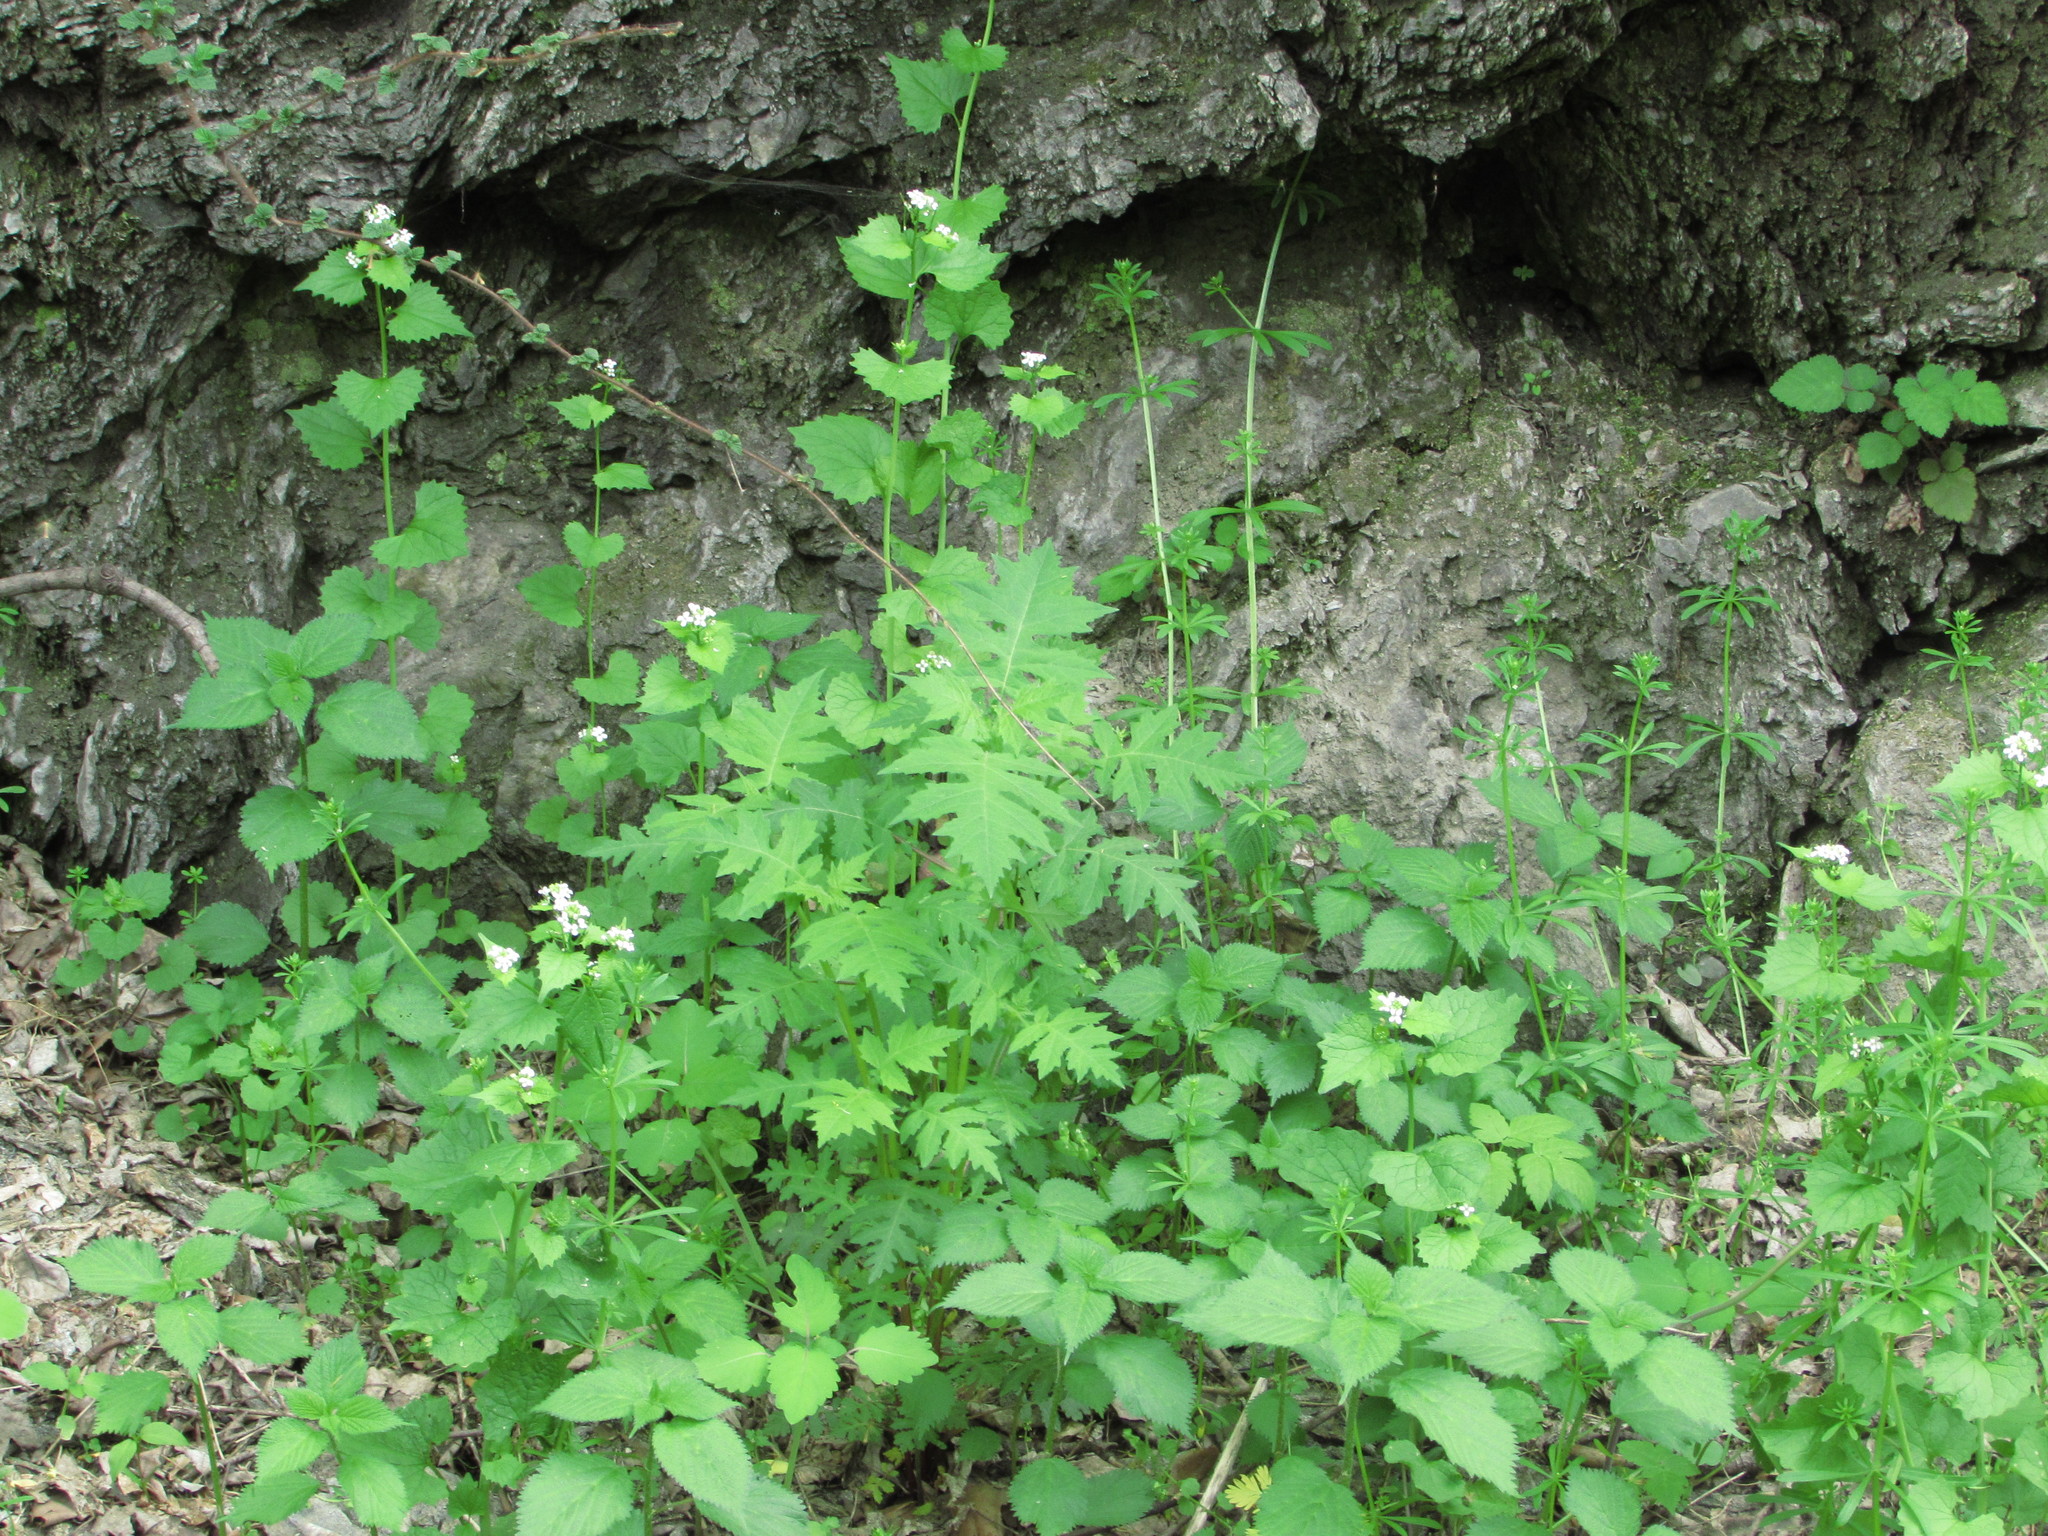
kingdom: Plantae
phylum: Tracheophyta
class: Magnoliopsida
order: Asterales
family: Asteraceae
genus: Polymnia
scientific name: Polymnia canadensis
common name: Pale-flowered leafcup
